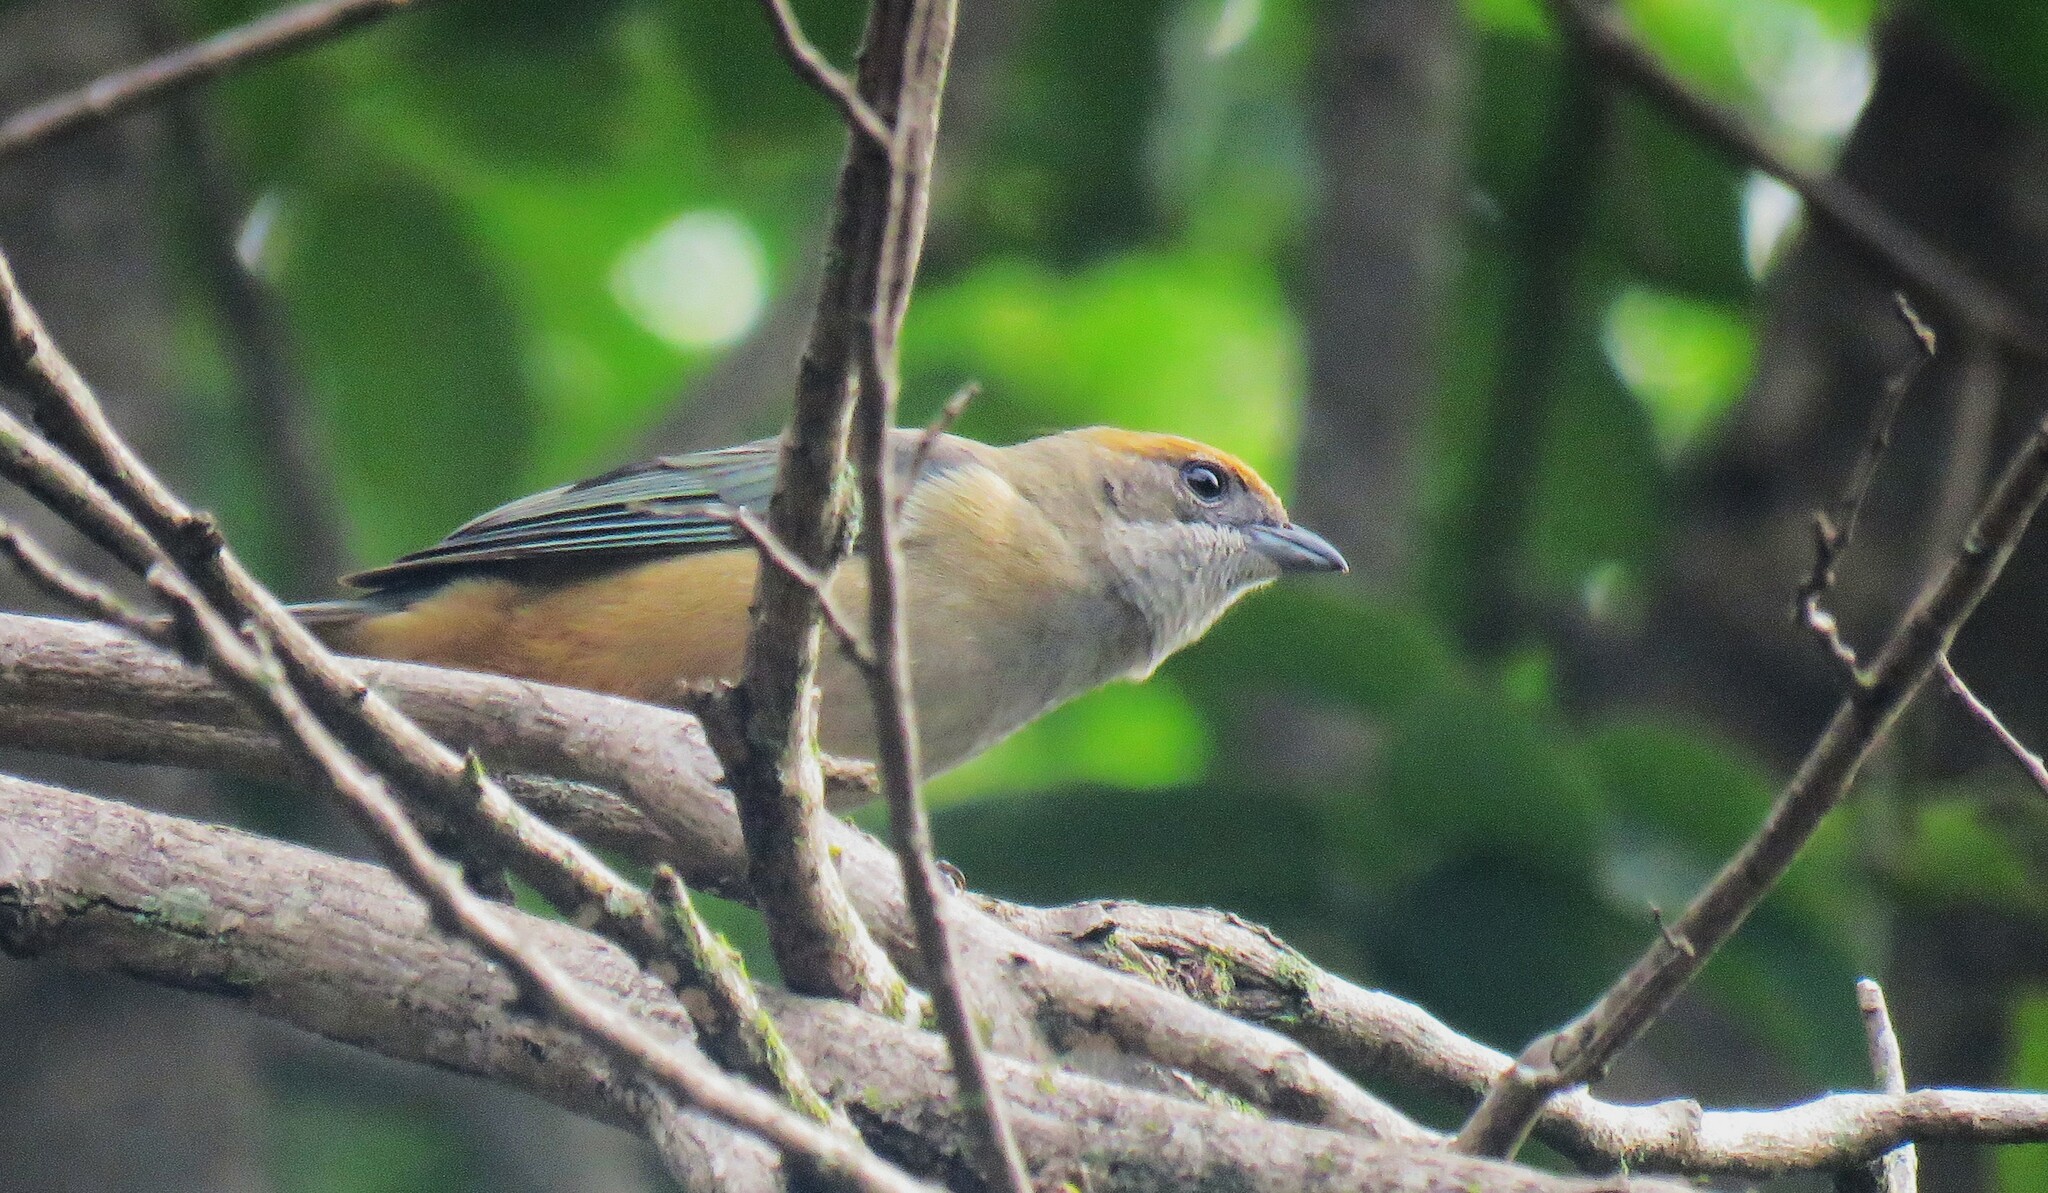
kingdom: Animalia
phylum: Chordata
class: Aves
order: Passeriformes
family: Thraupidae
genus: Stilpnia
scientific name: Stilpnia cayana
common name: Burnished-buff tanager
